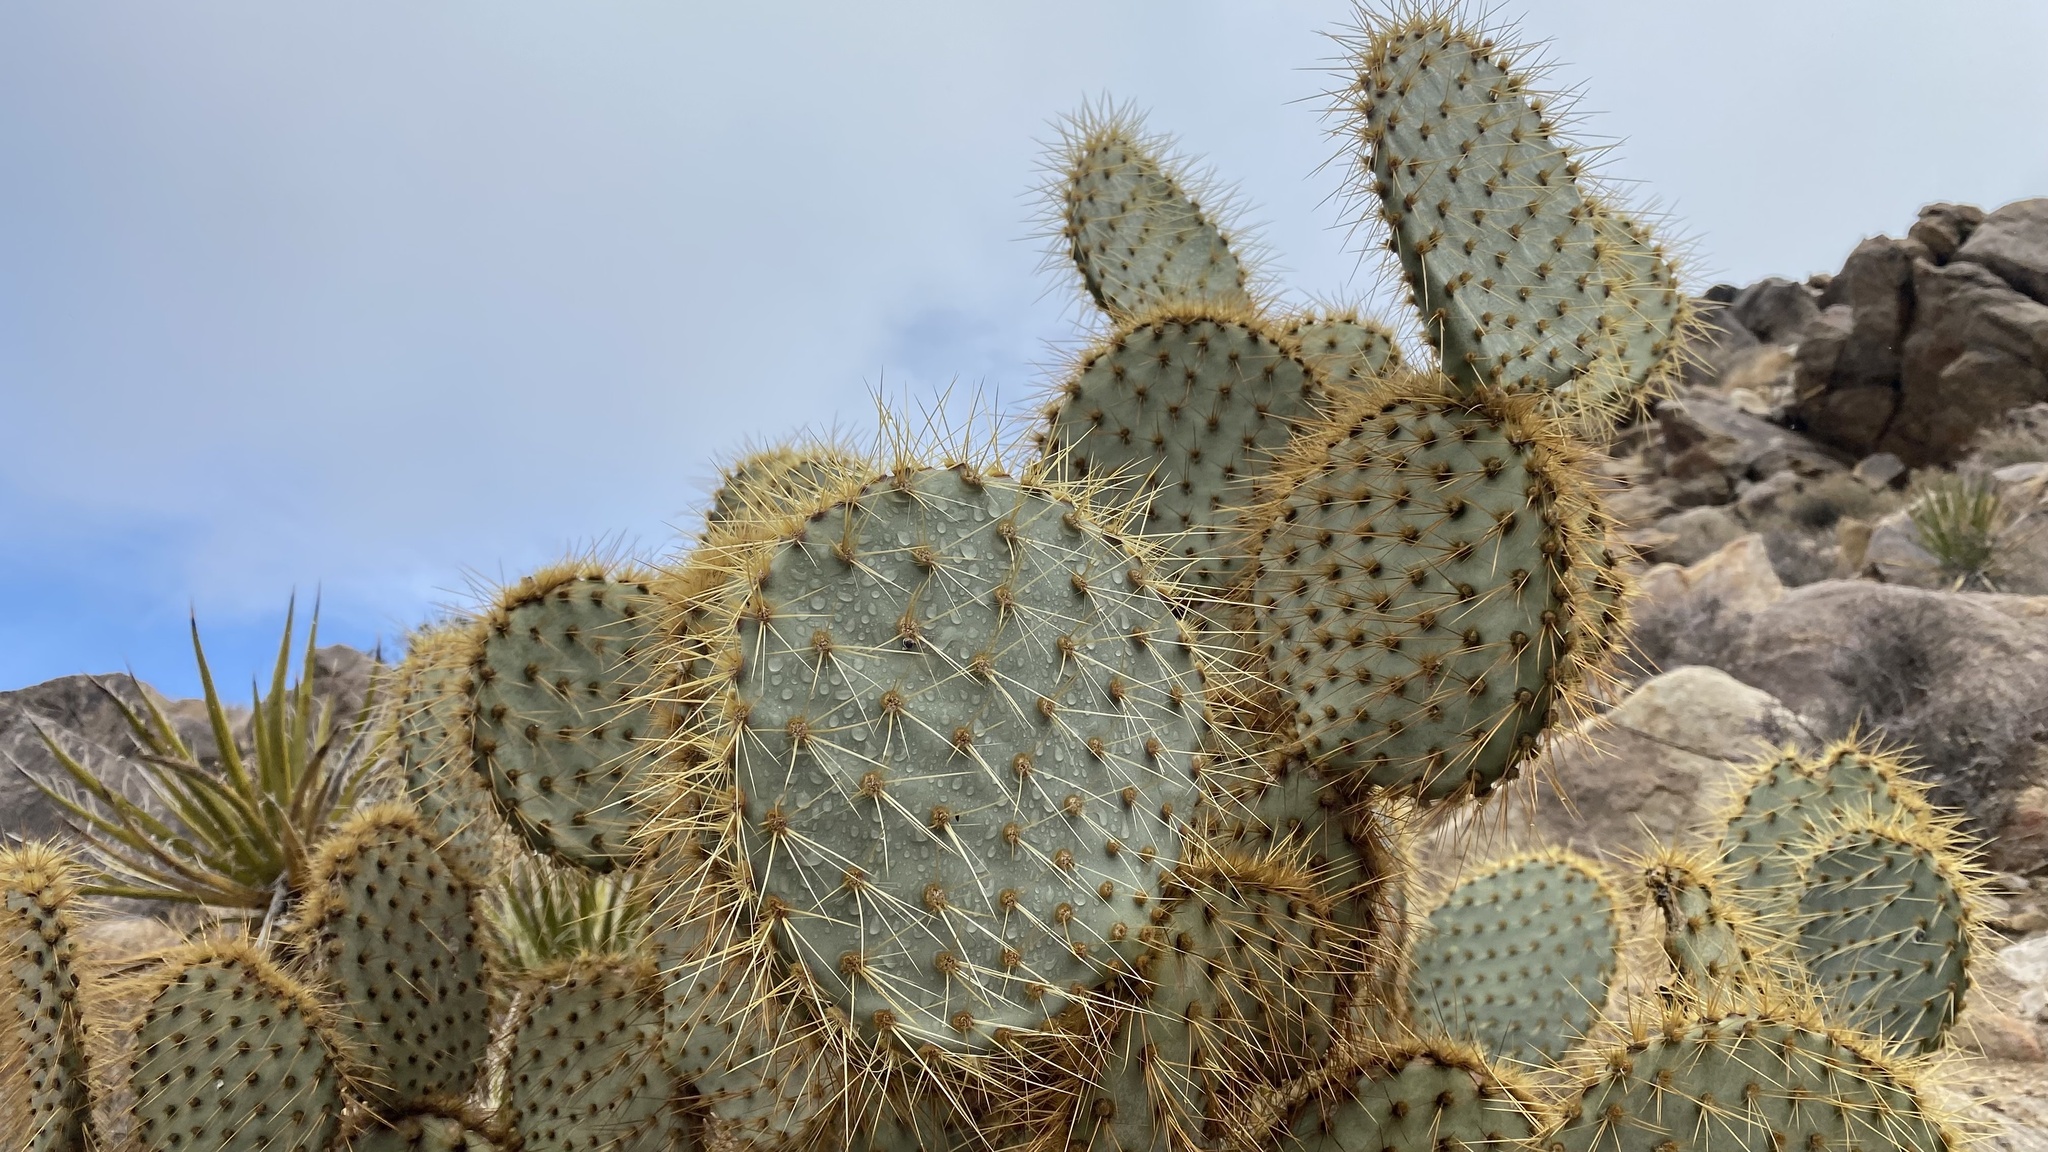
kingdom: Plantae
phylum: Tracheophyta
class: Magnoliopsida
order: Caryophyllales
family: Cactaceae
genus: Opuntia
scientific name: Opuntia chlorotica
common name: Dollar-joint prickly-pear
